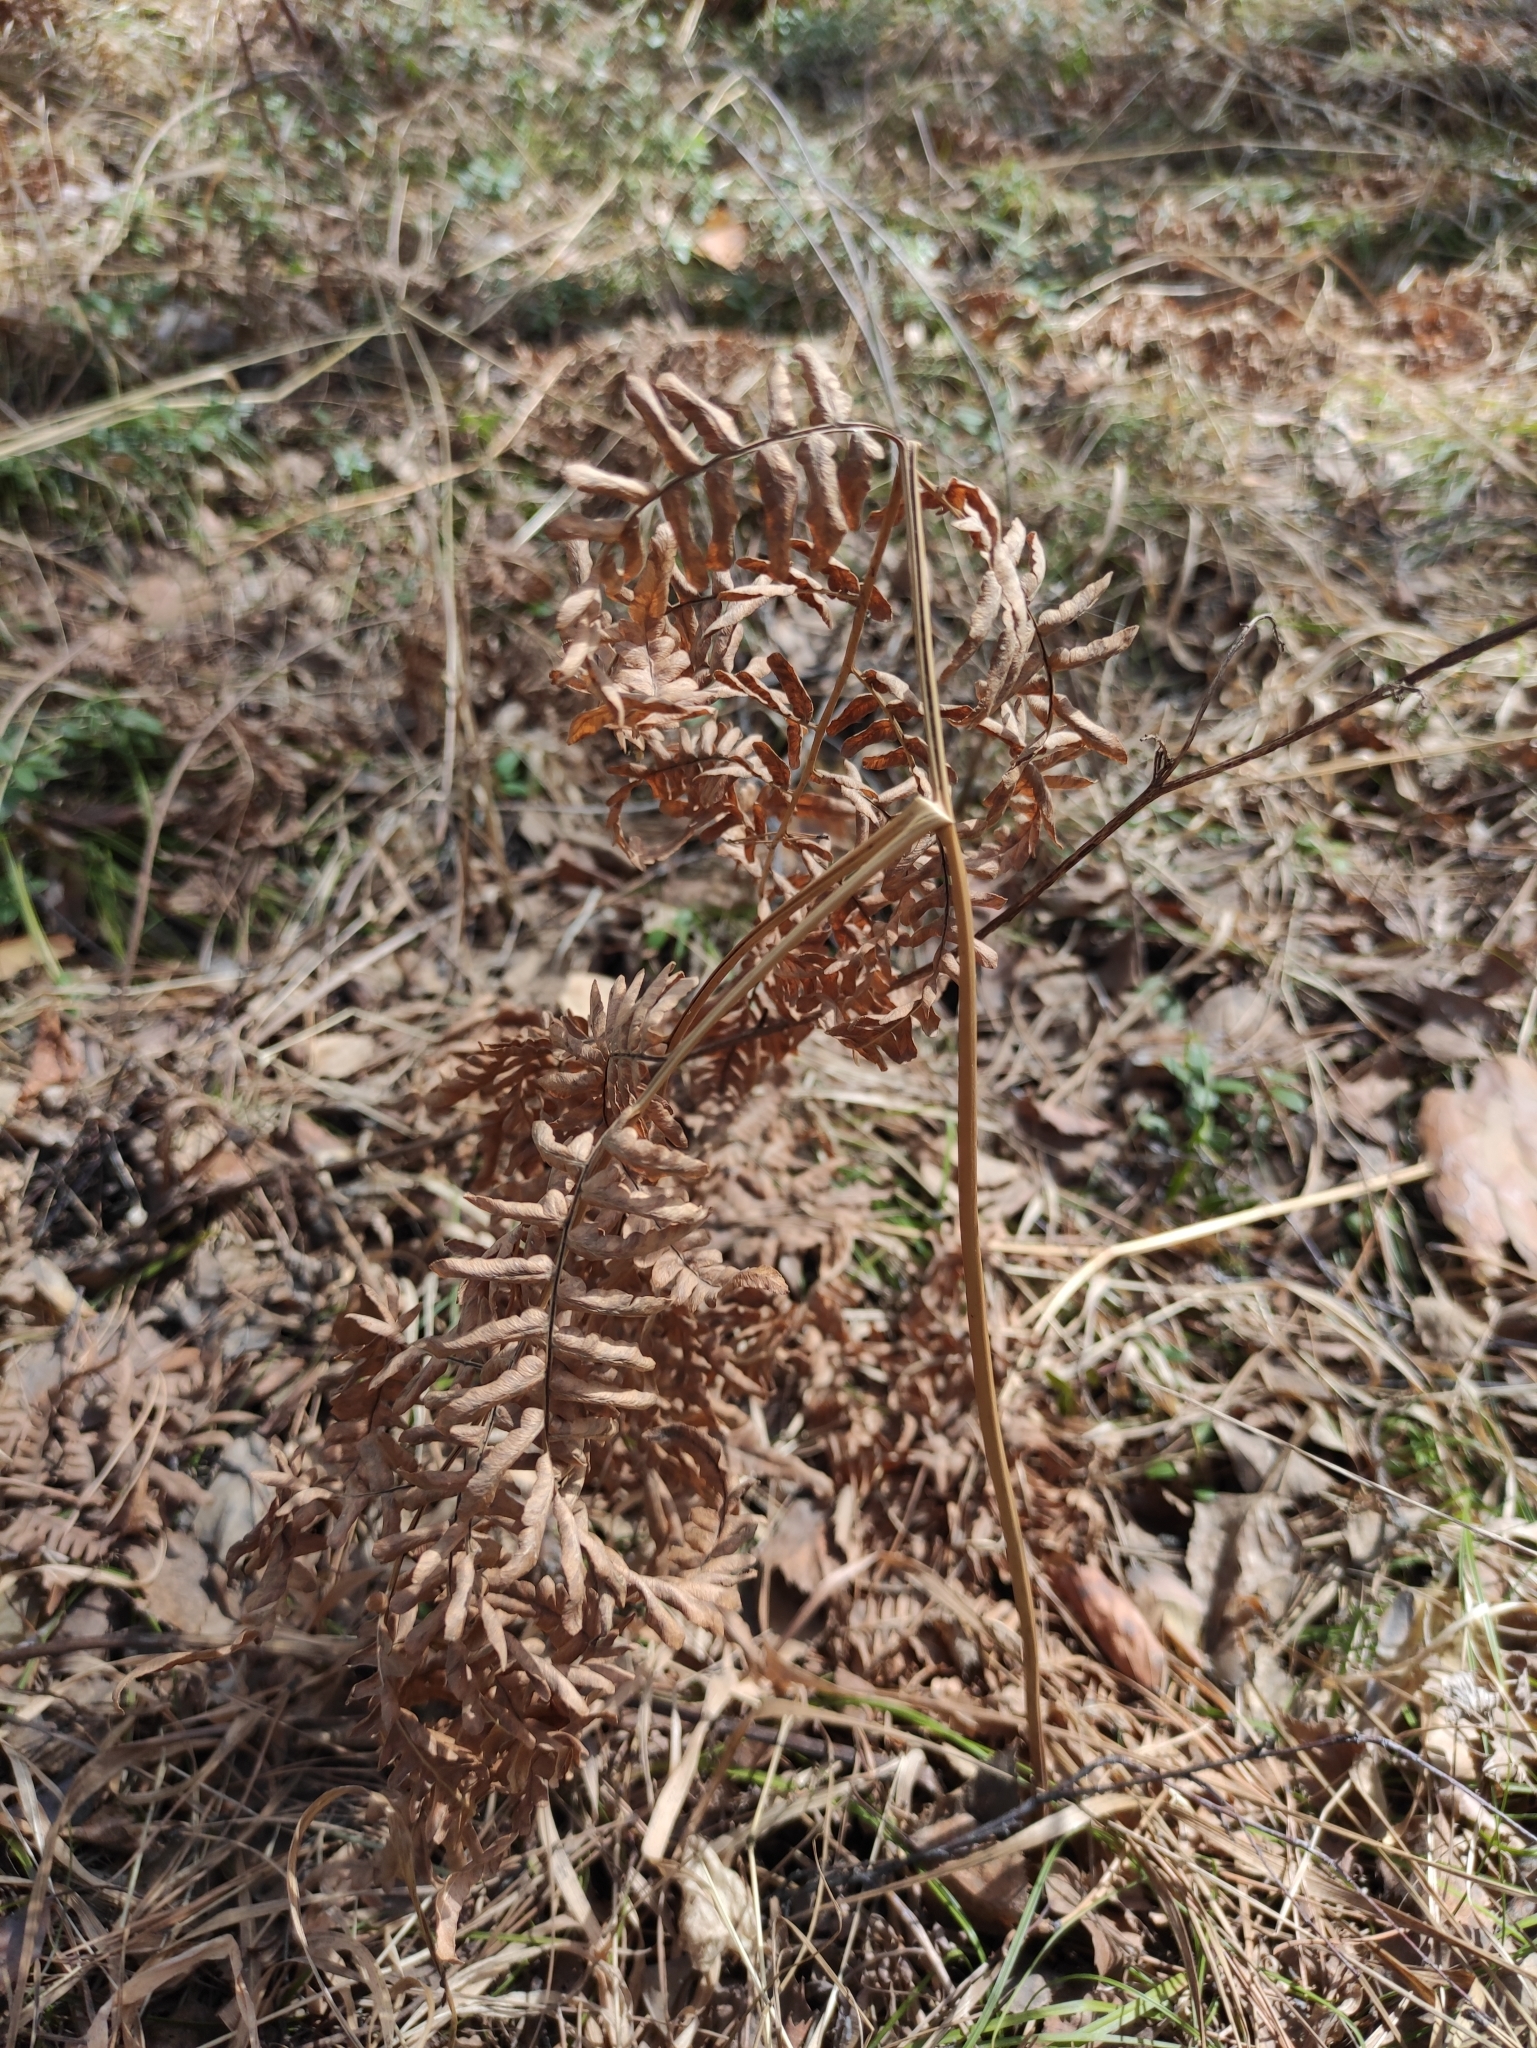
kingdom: Plantae
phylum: Tracheophyta
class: Polypodiopsida
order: Polypodiales
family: Dennstaedtiaceae
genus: Pteridium
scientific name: Pteridium aquilinum
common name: Bracken
